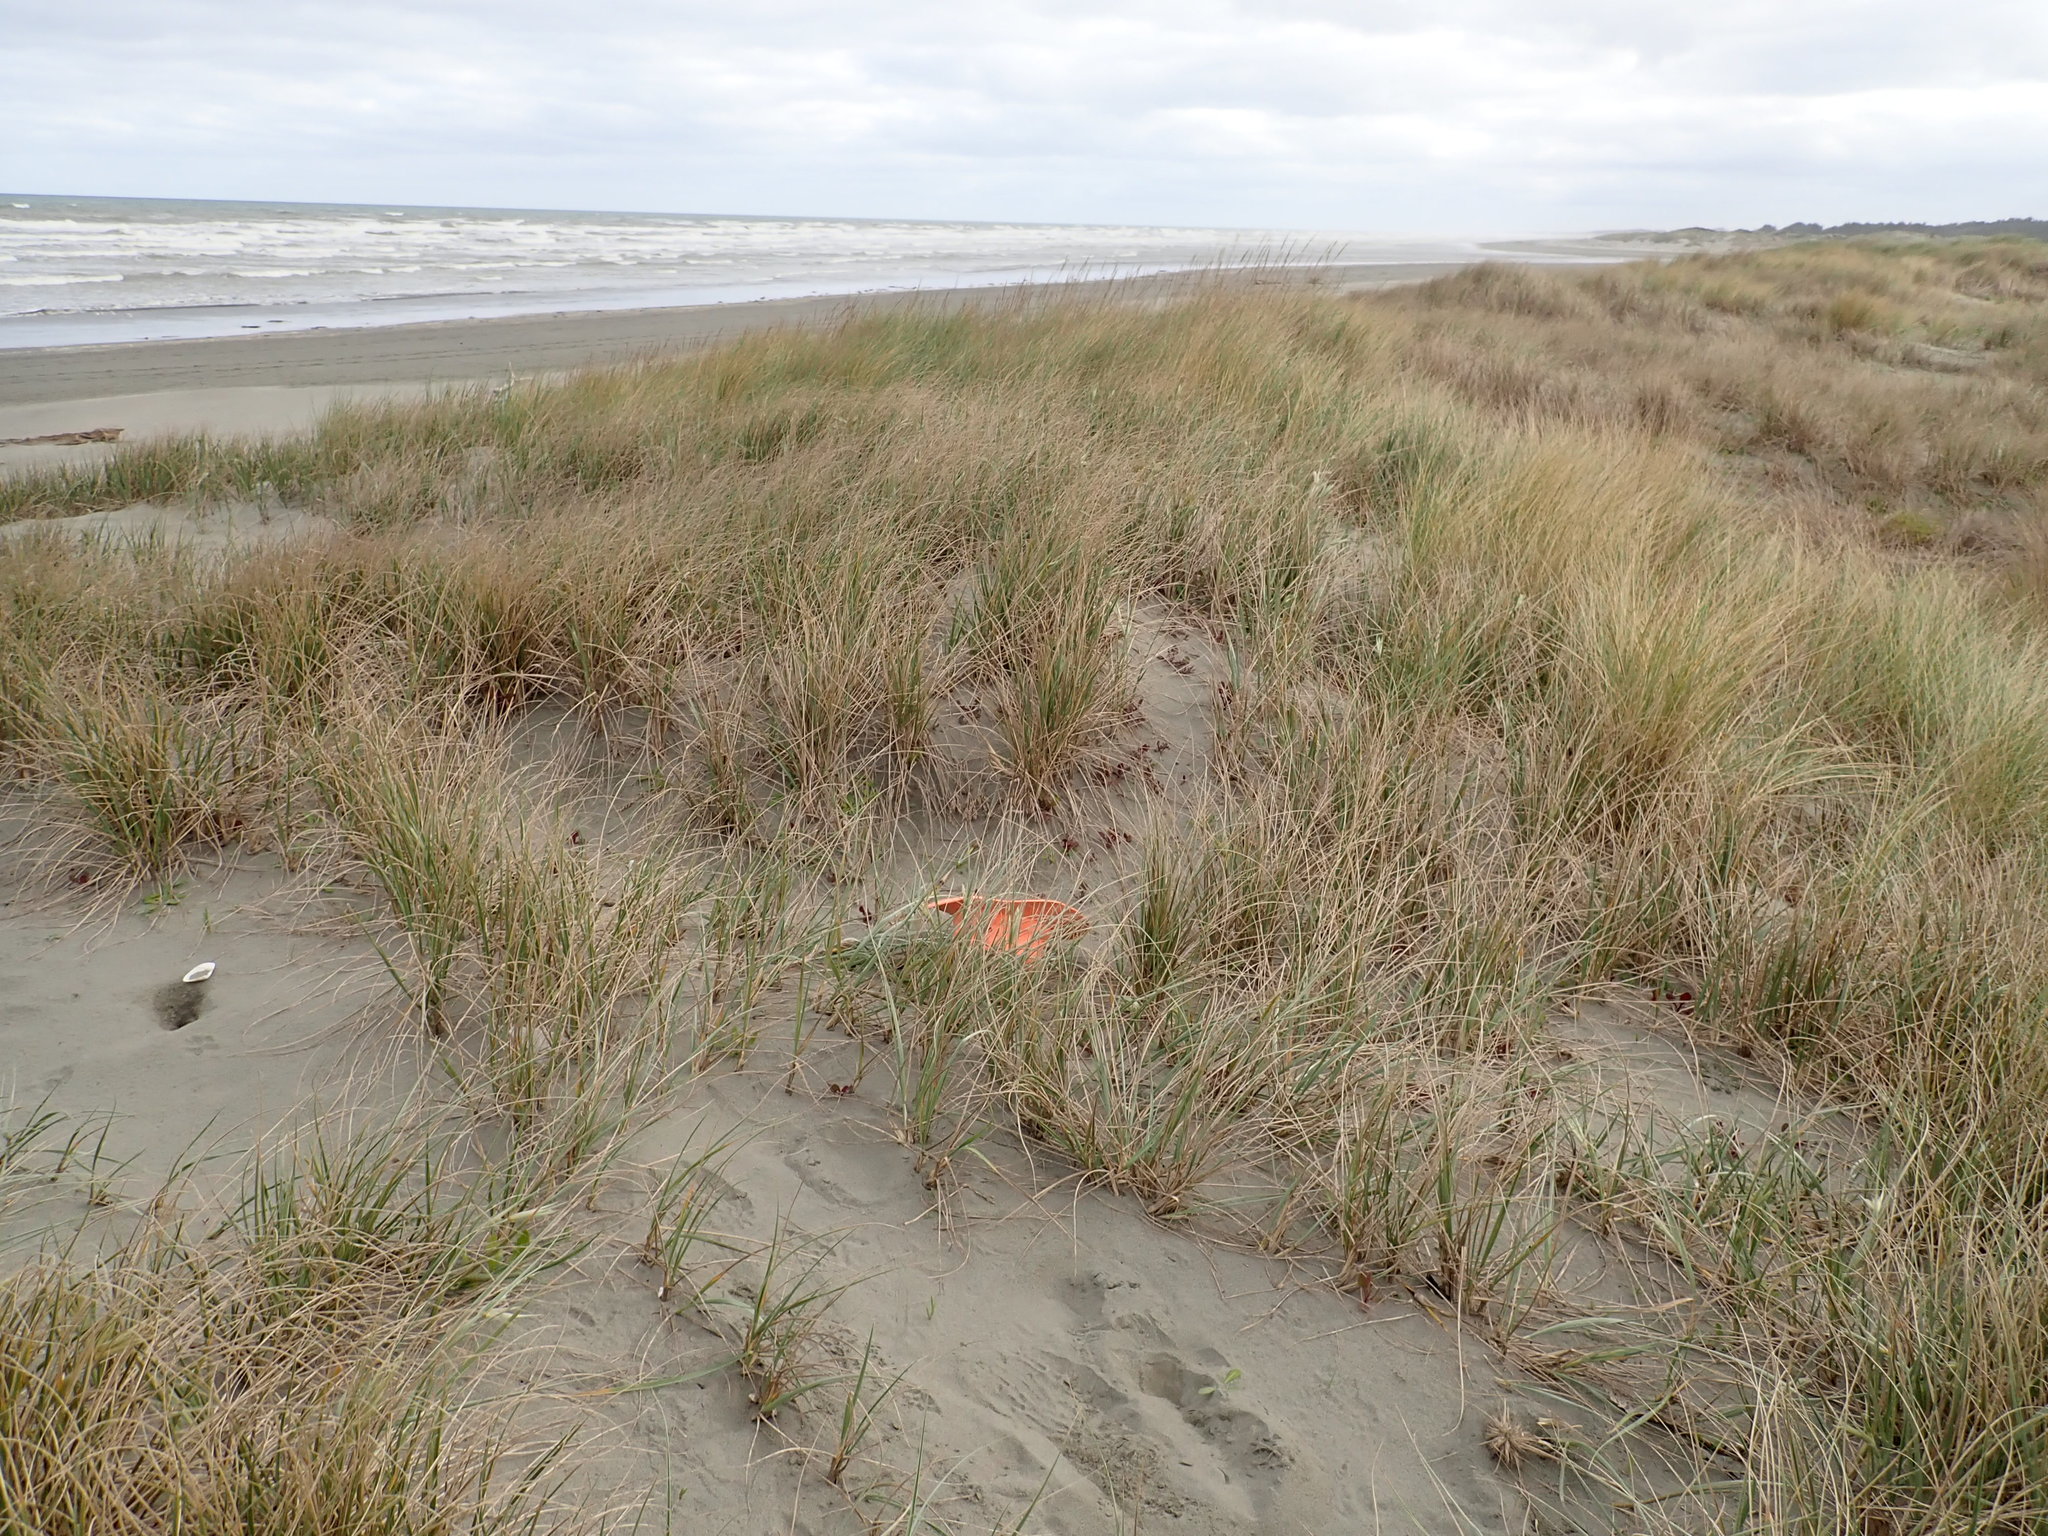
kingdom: Plantae
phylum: Tracheophyta
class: Magnoliopsida
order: Asterales
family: Asteraceae
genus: Sonchus
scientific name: Sonchus oleraceus
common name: Common sowthistle
